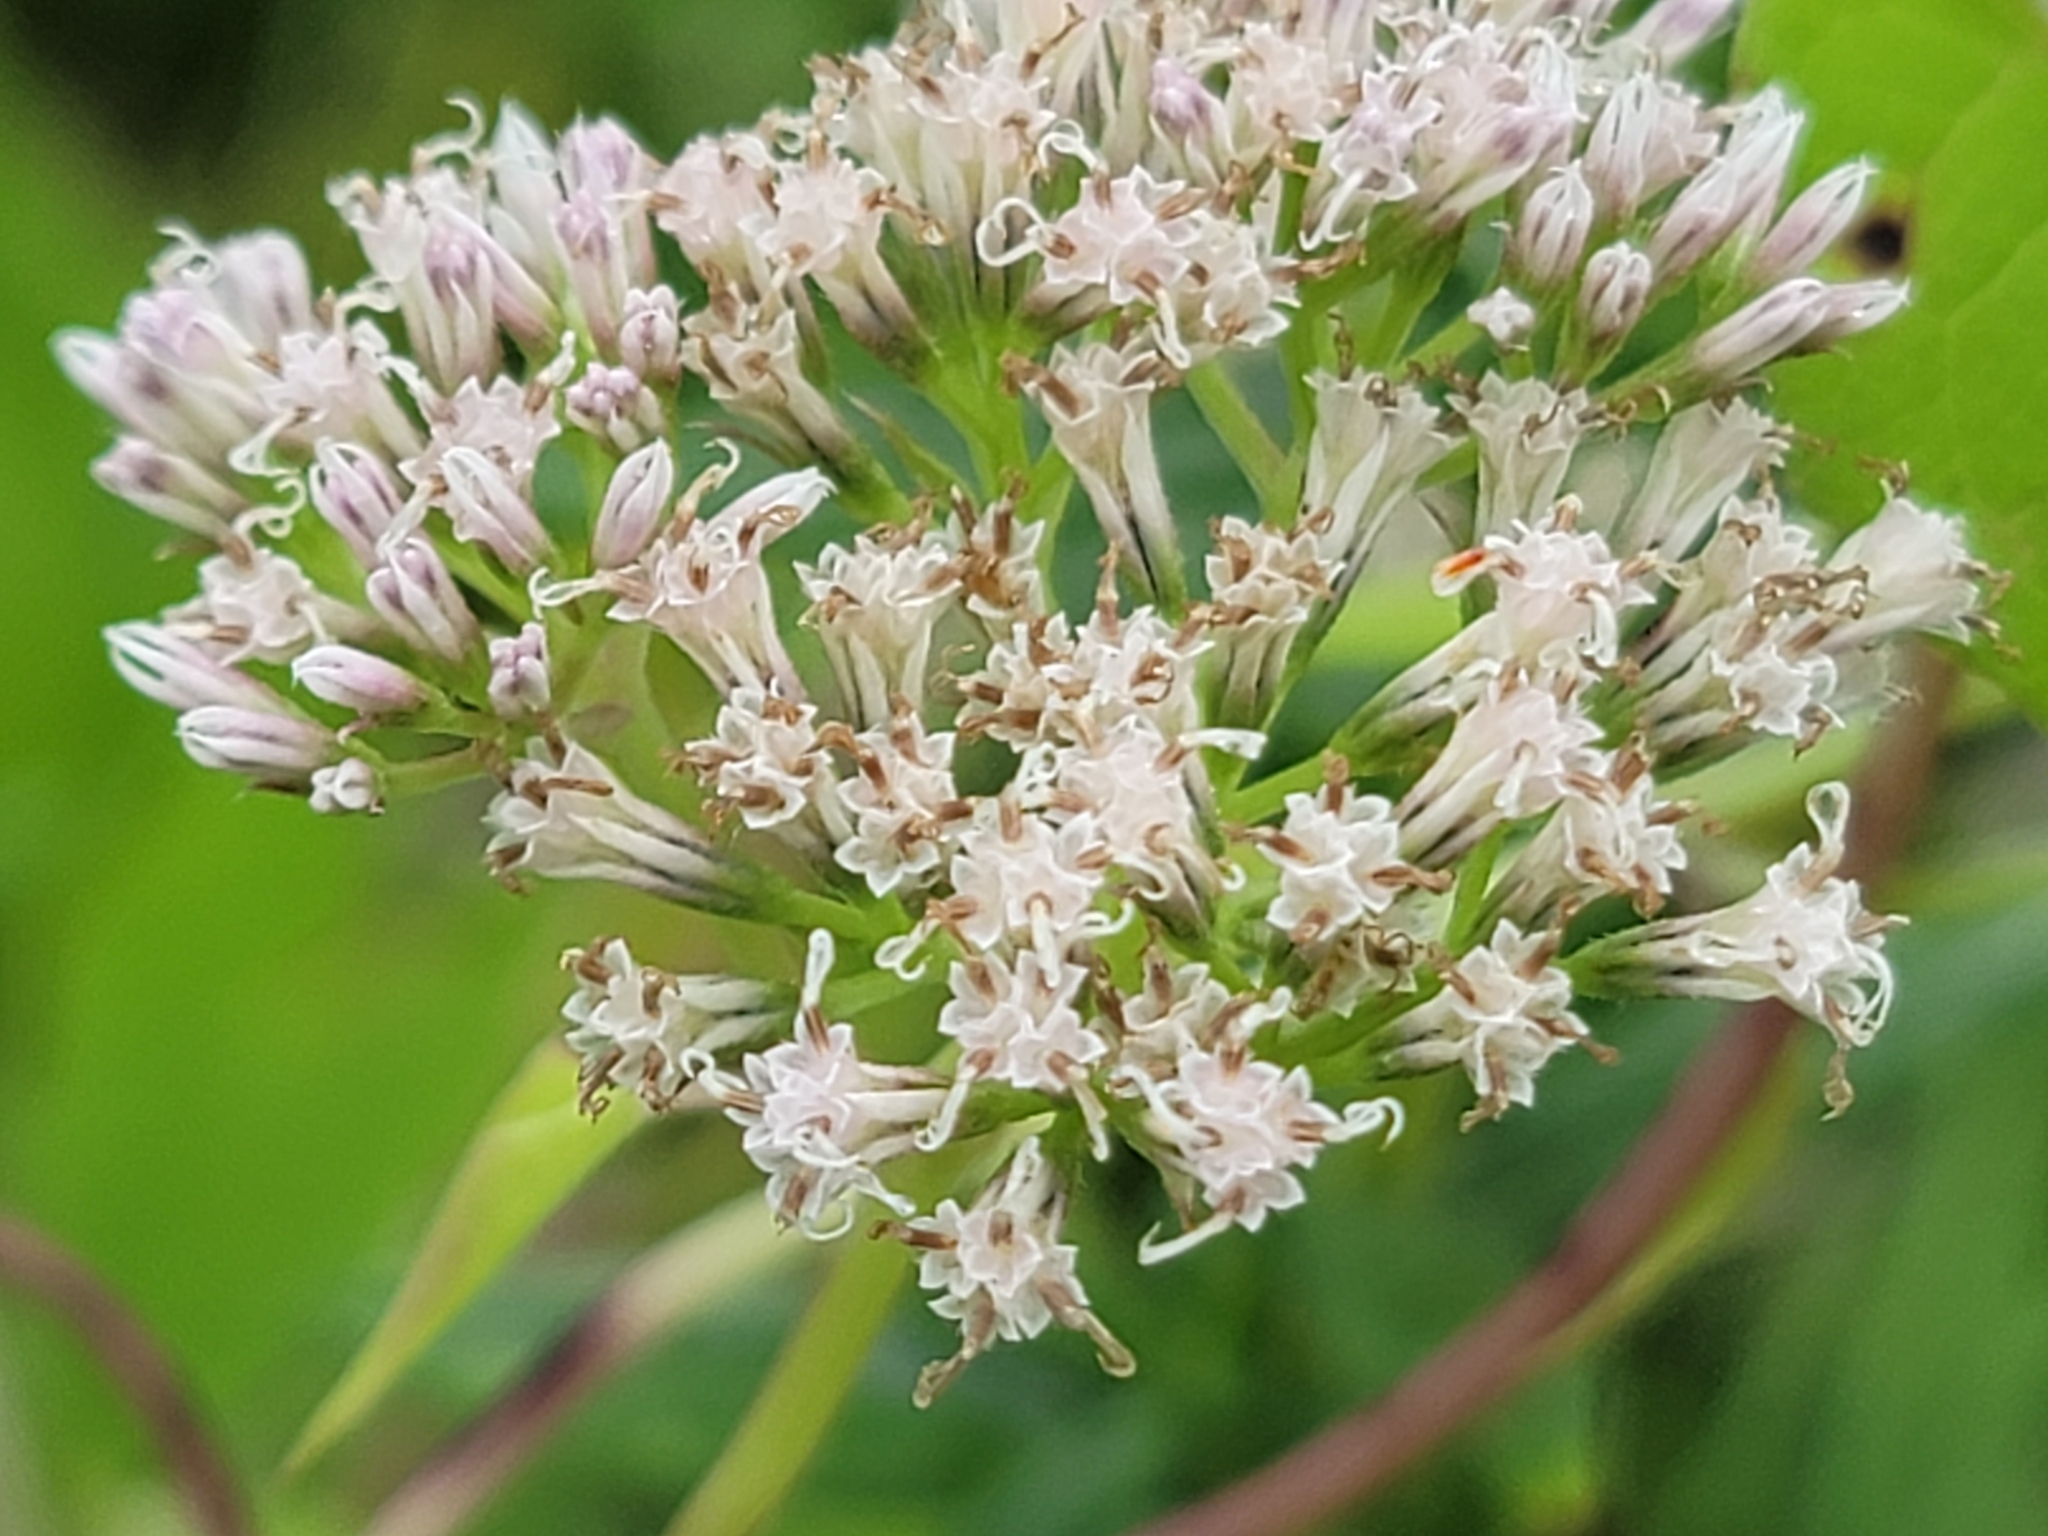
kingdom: Plantae
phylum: Tracheophyta
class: Magnoliopsida
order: Asterales
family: Asteraceae
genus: Mikania
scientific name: Mikania scandens
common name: Climbing hempvine
